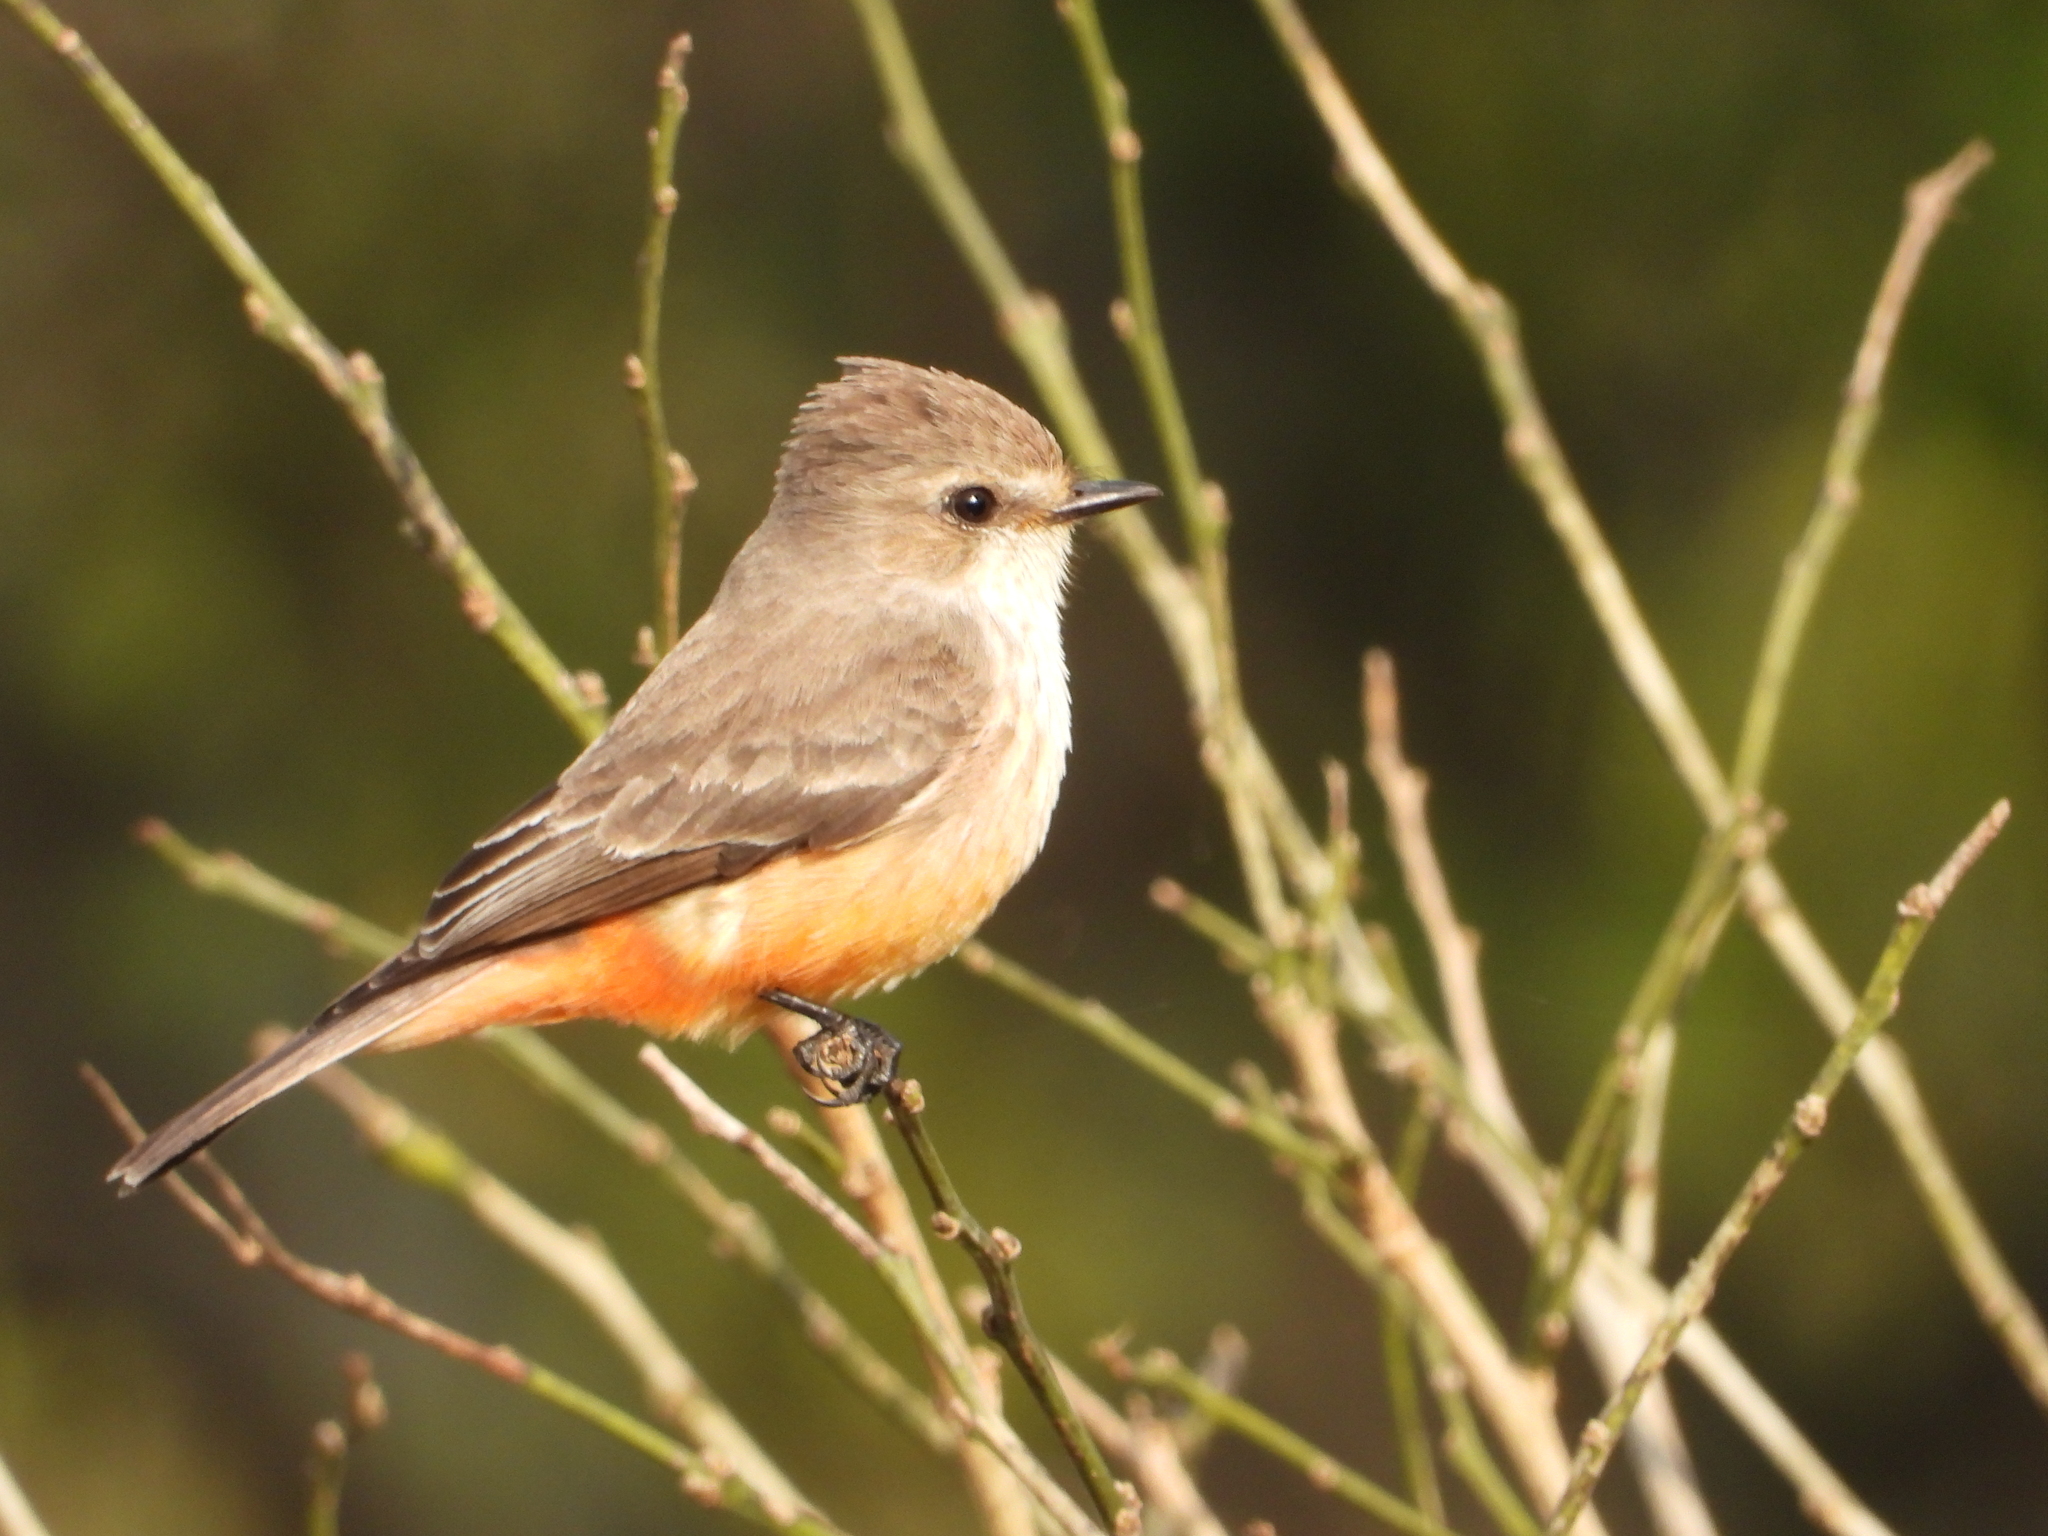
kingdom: Animalia
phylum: Chordata
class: Aves
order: Passeriformes
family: Tyrannidae
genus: Pyrocephalus
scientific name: Pyrocephalus rubinus
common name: Vermilion flycatcher
